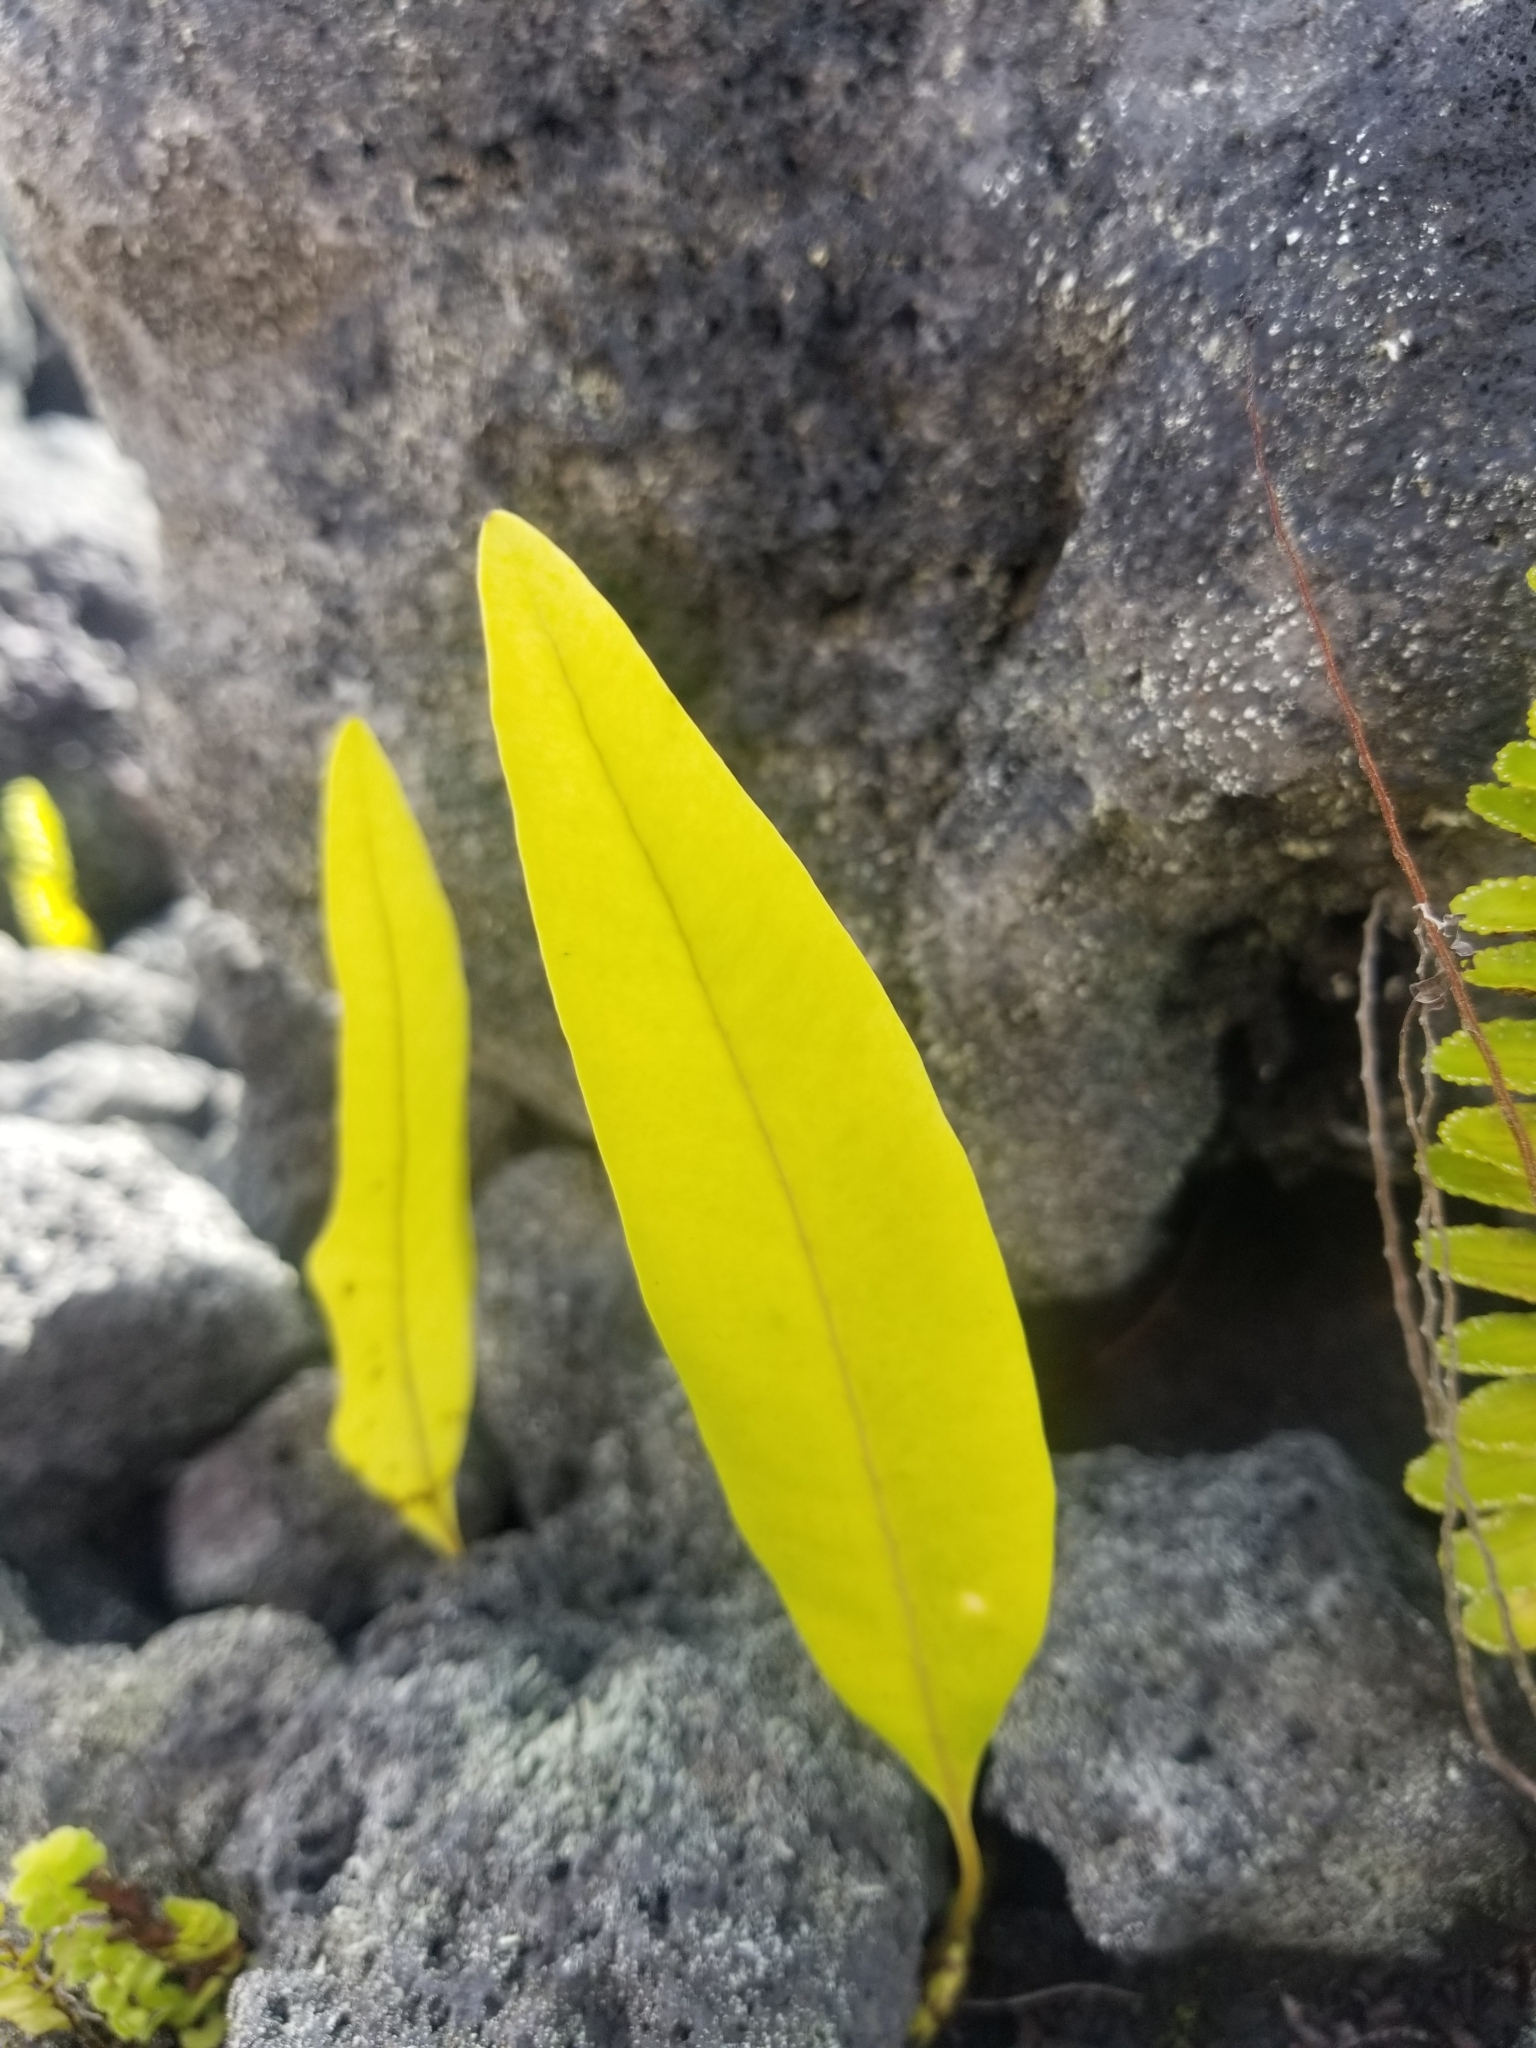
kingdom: Plantae
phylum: Tracheophyta
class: Polypodiopsida
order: Polypodiales
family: Polypodiaceae
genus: Microsorum
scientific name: Microsorum grossum
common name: Musk fern
